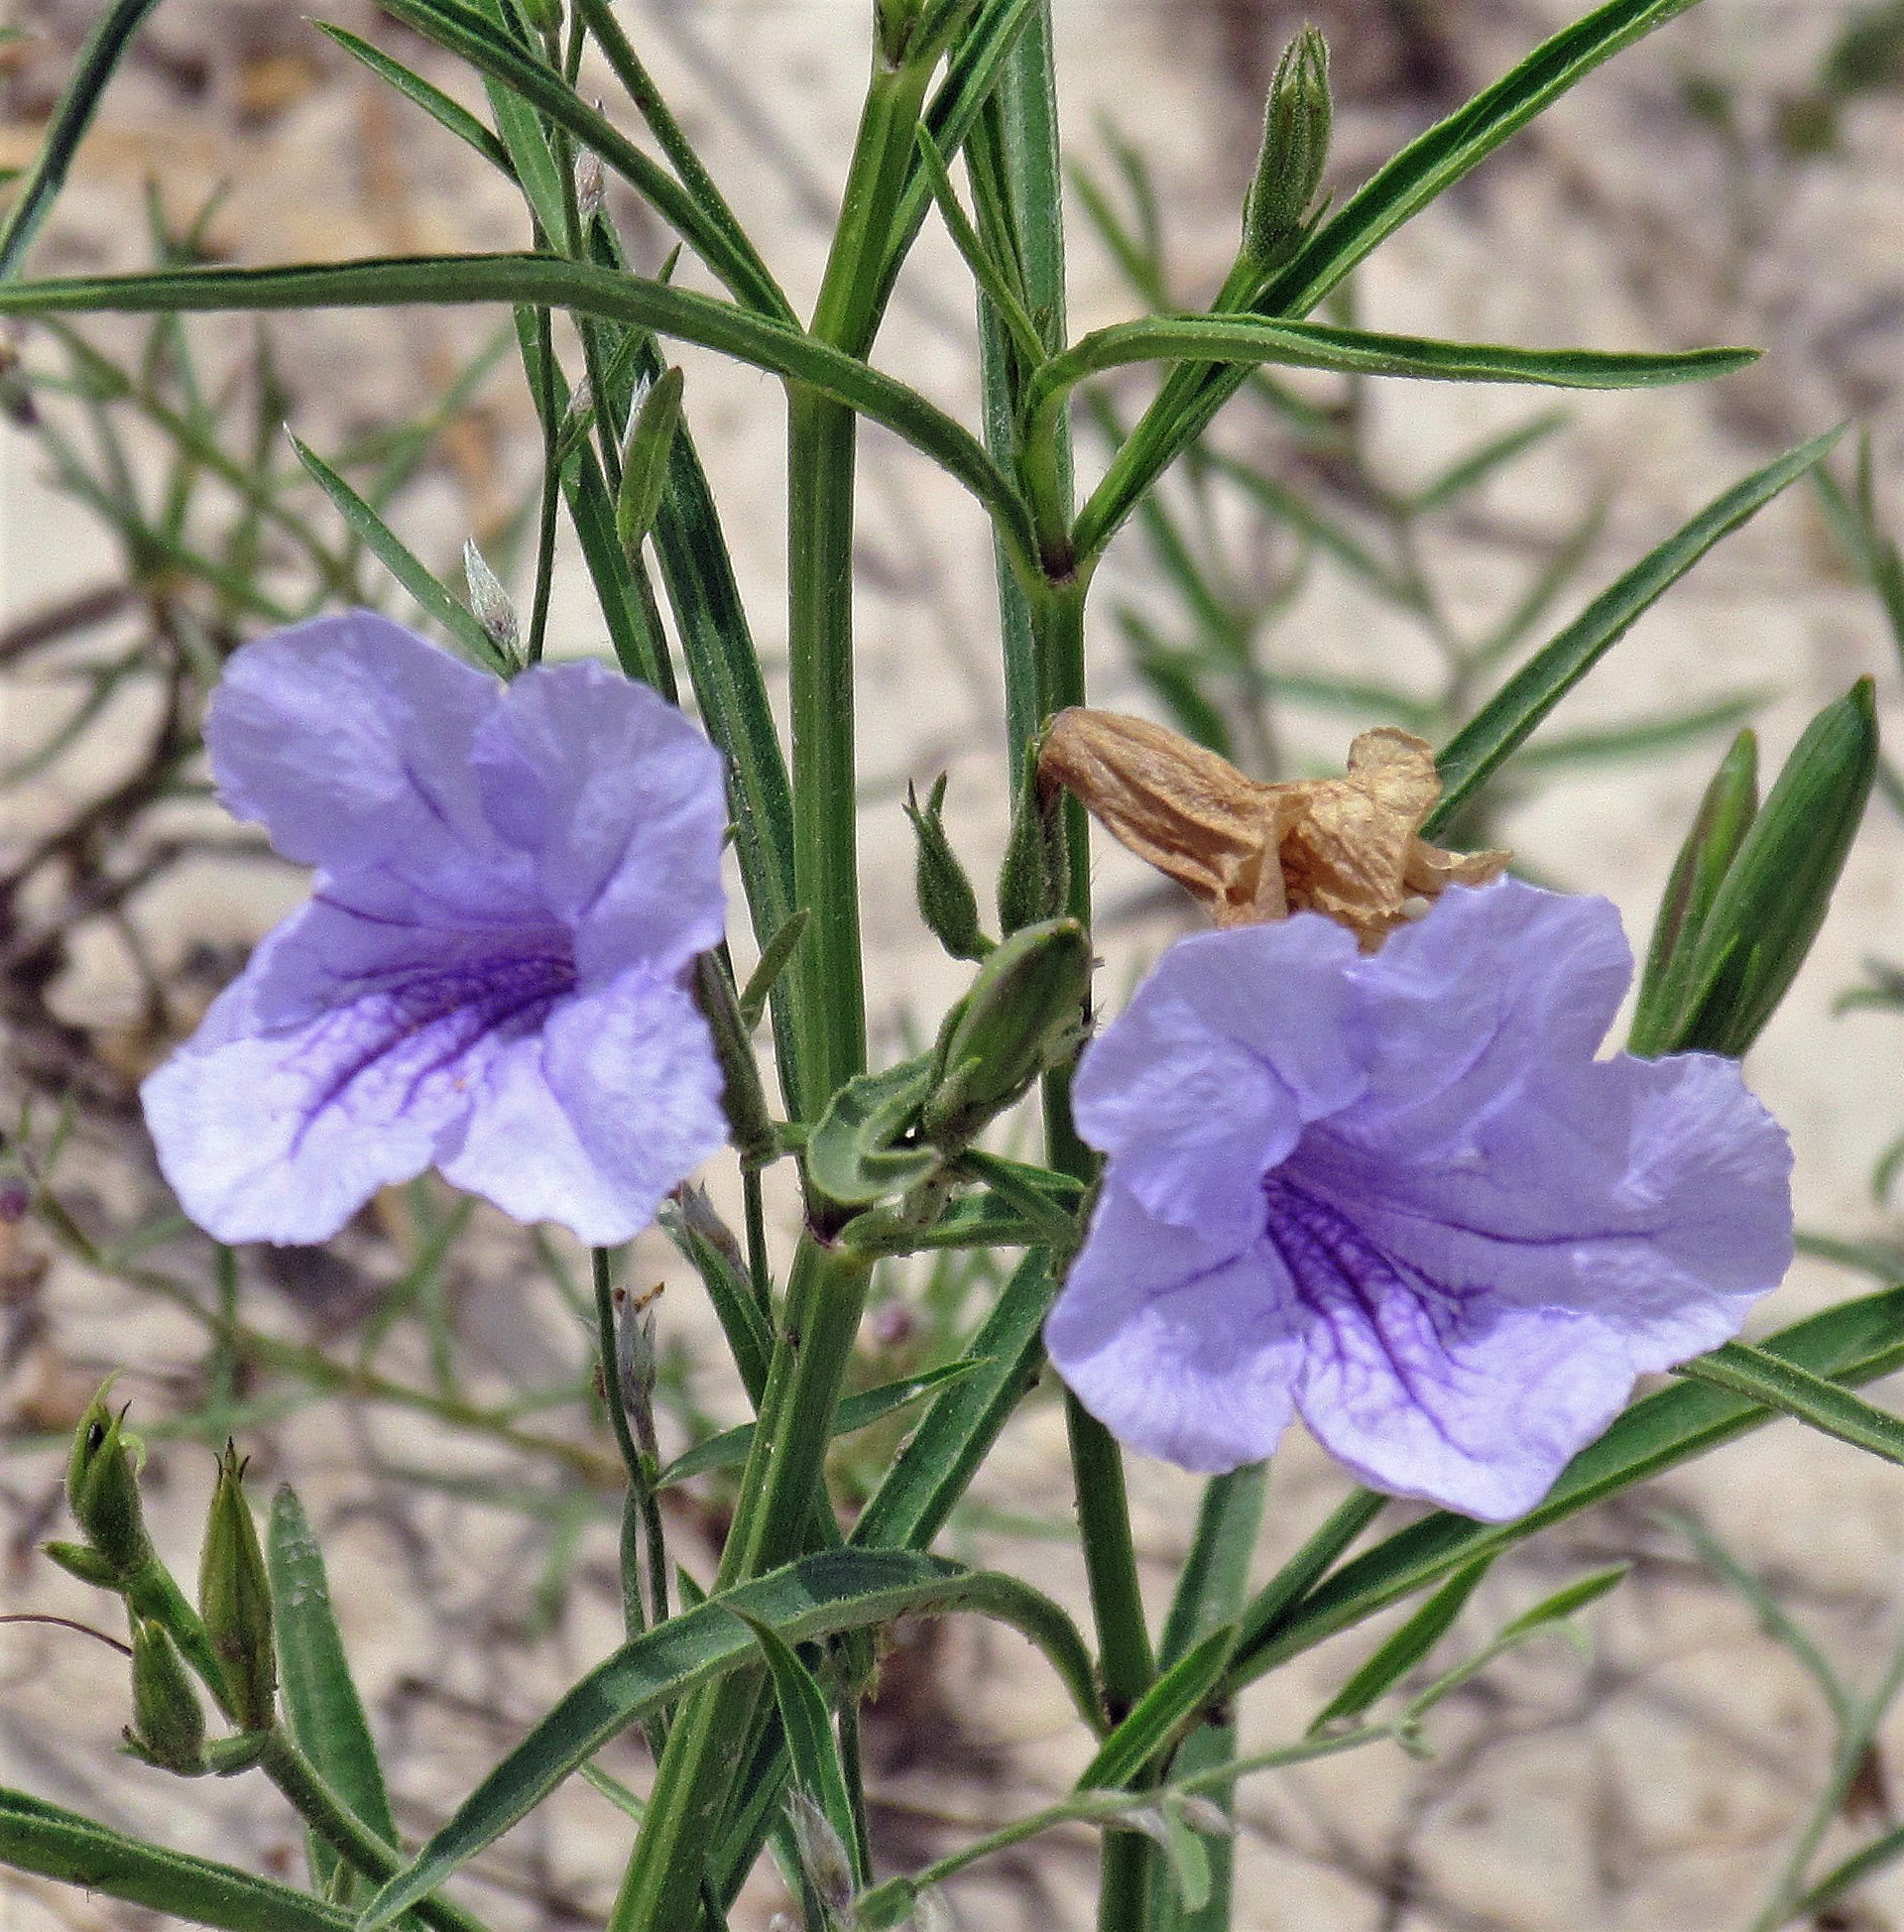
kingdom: Plantae
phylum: Tracheophyta
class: Magnoliopsida
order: Lamiales
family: Acanthaceae
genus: Ruellia
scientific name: Ruellia simplex
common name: Softseed wild petunia
